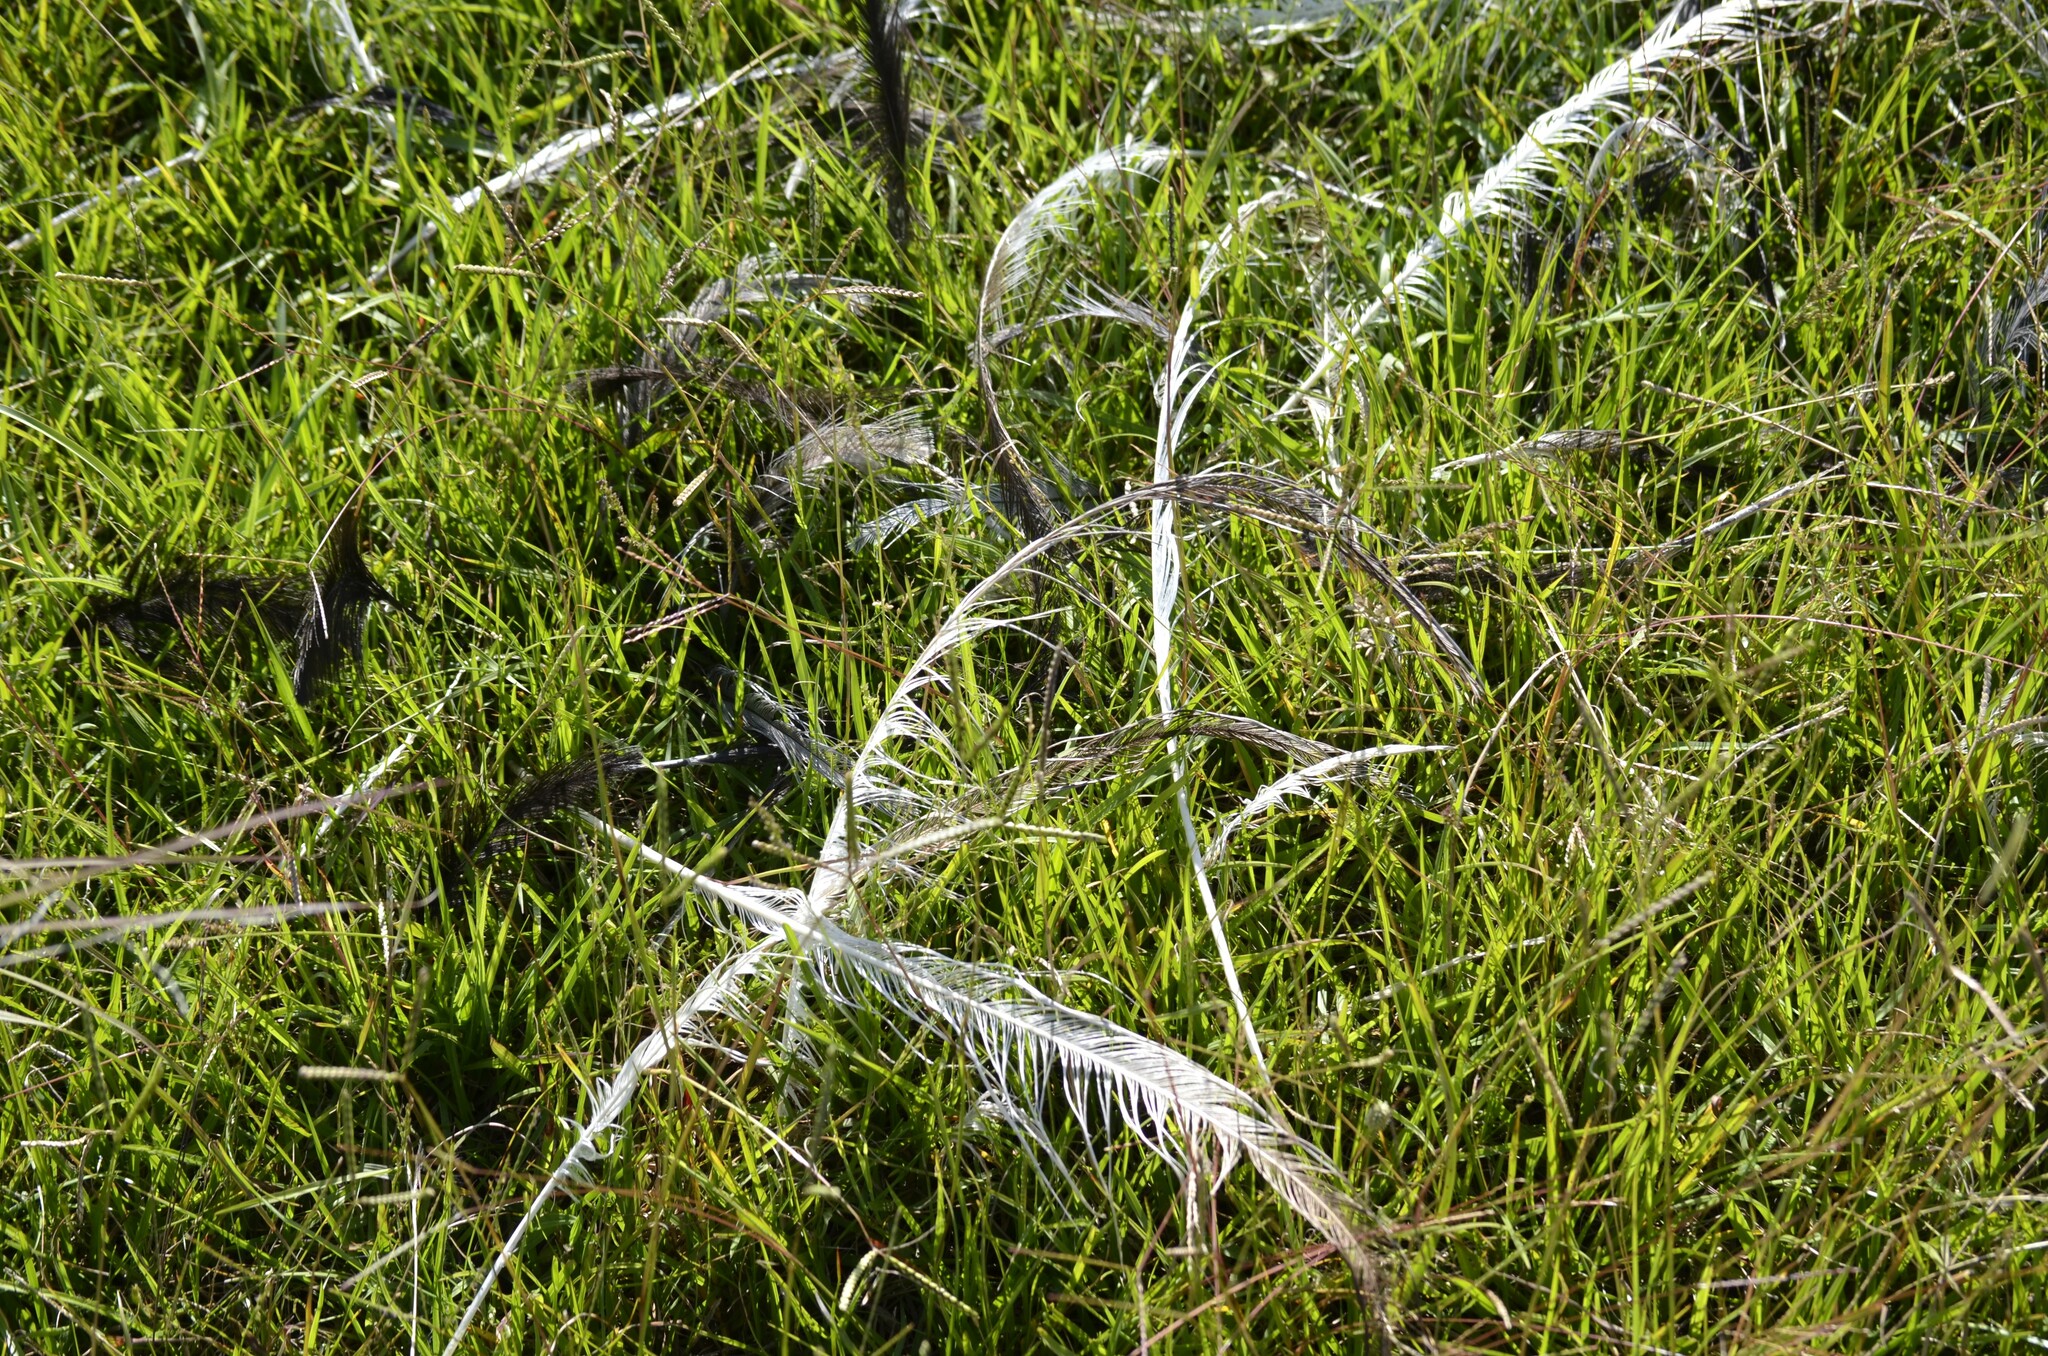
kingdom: Animalia
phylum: Chordata
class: Aves
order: Rheiformes
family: Rheidae
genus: Rhea
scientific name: Rhea americana
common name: Greater rhea
